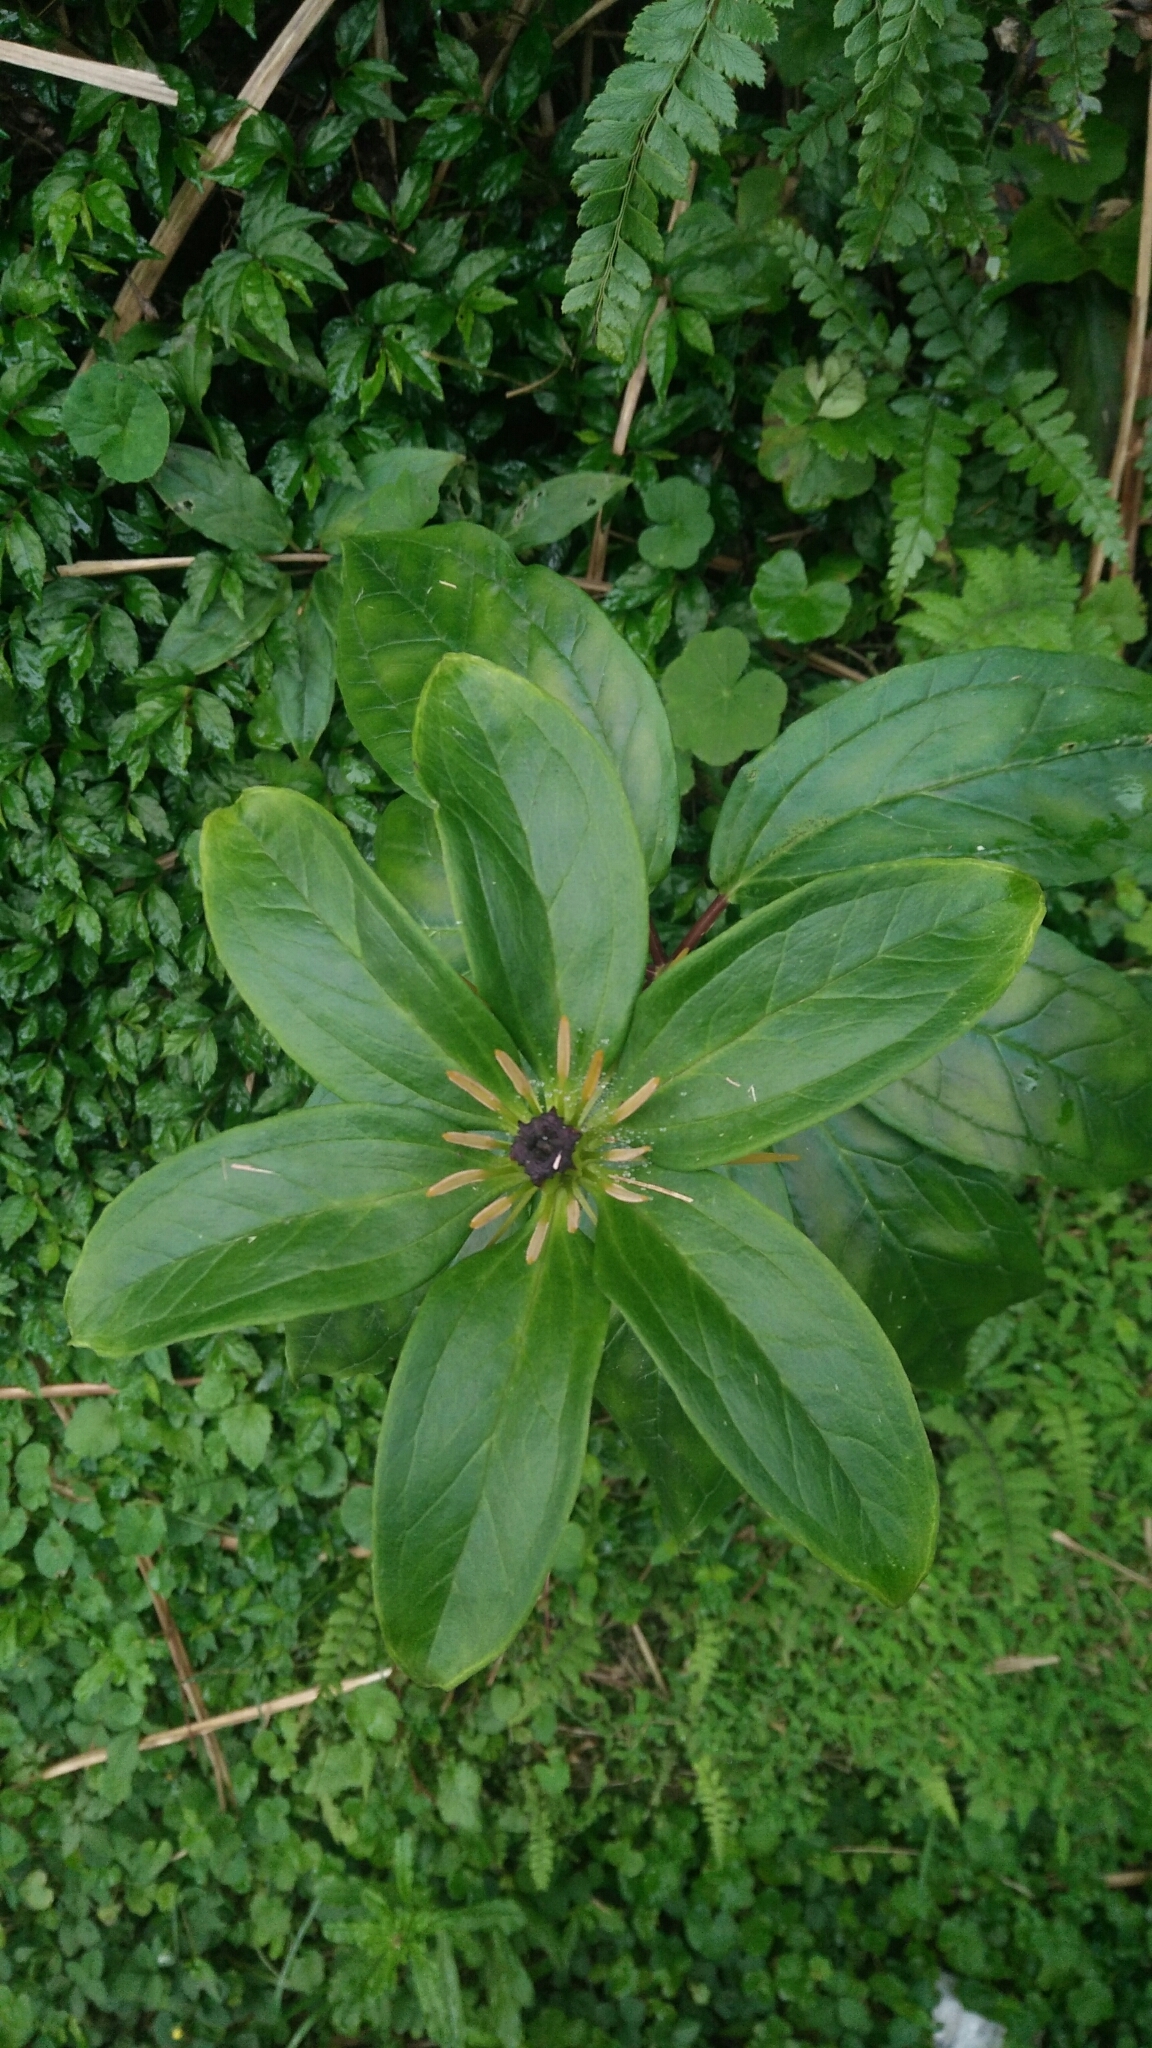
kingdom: Plantae
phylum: Tracheophyta
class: Liliopsida
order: Liliales
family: Melanthiaceae
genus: Paris
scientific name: Paris polyphylla
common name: Love apple
